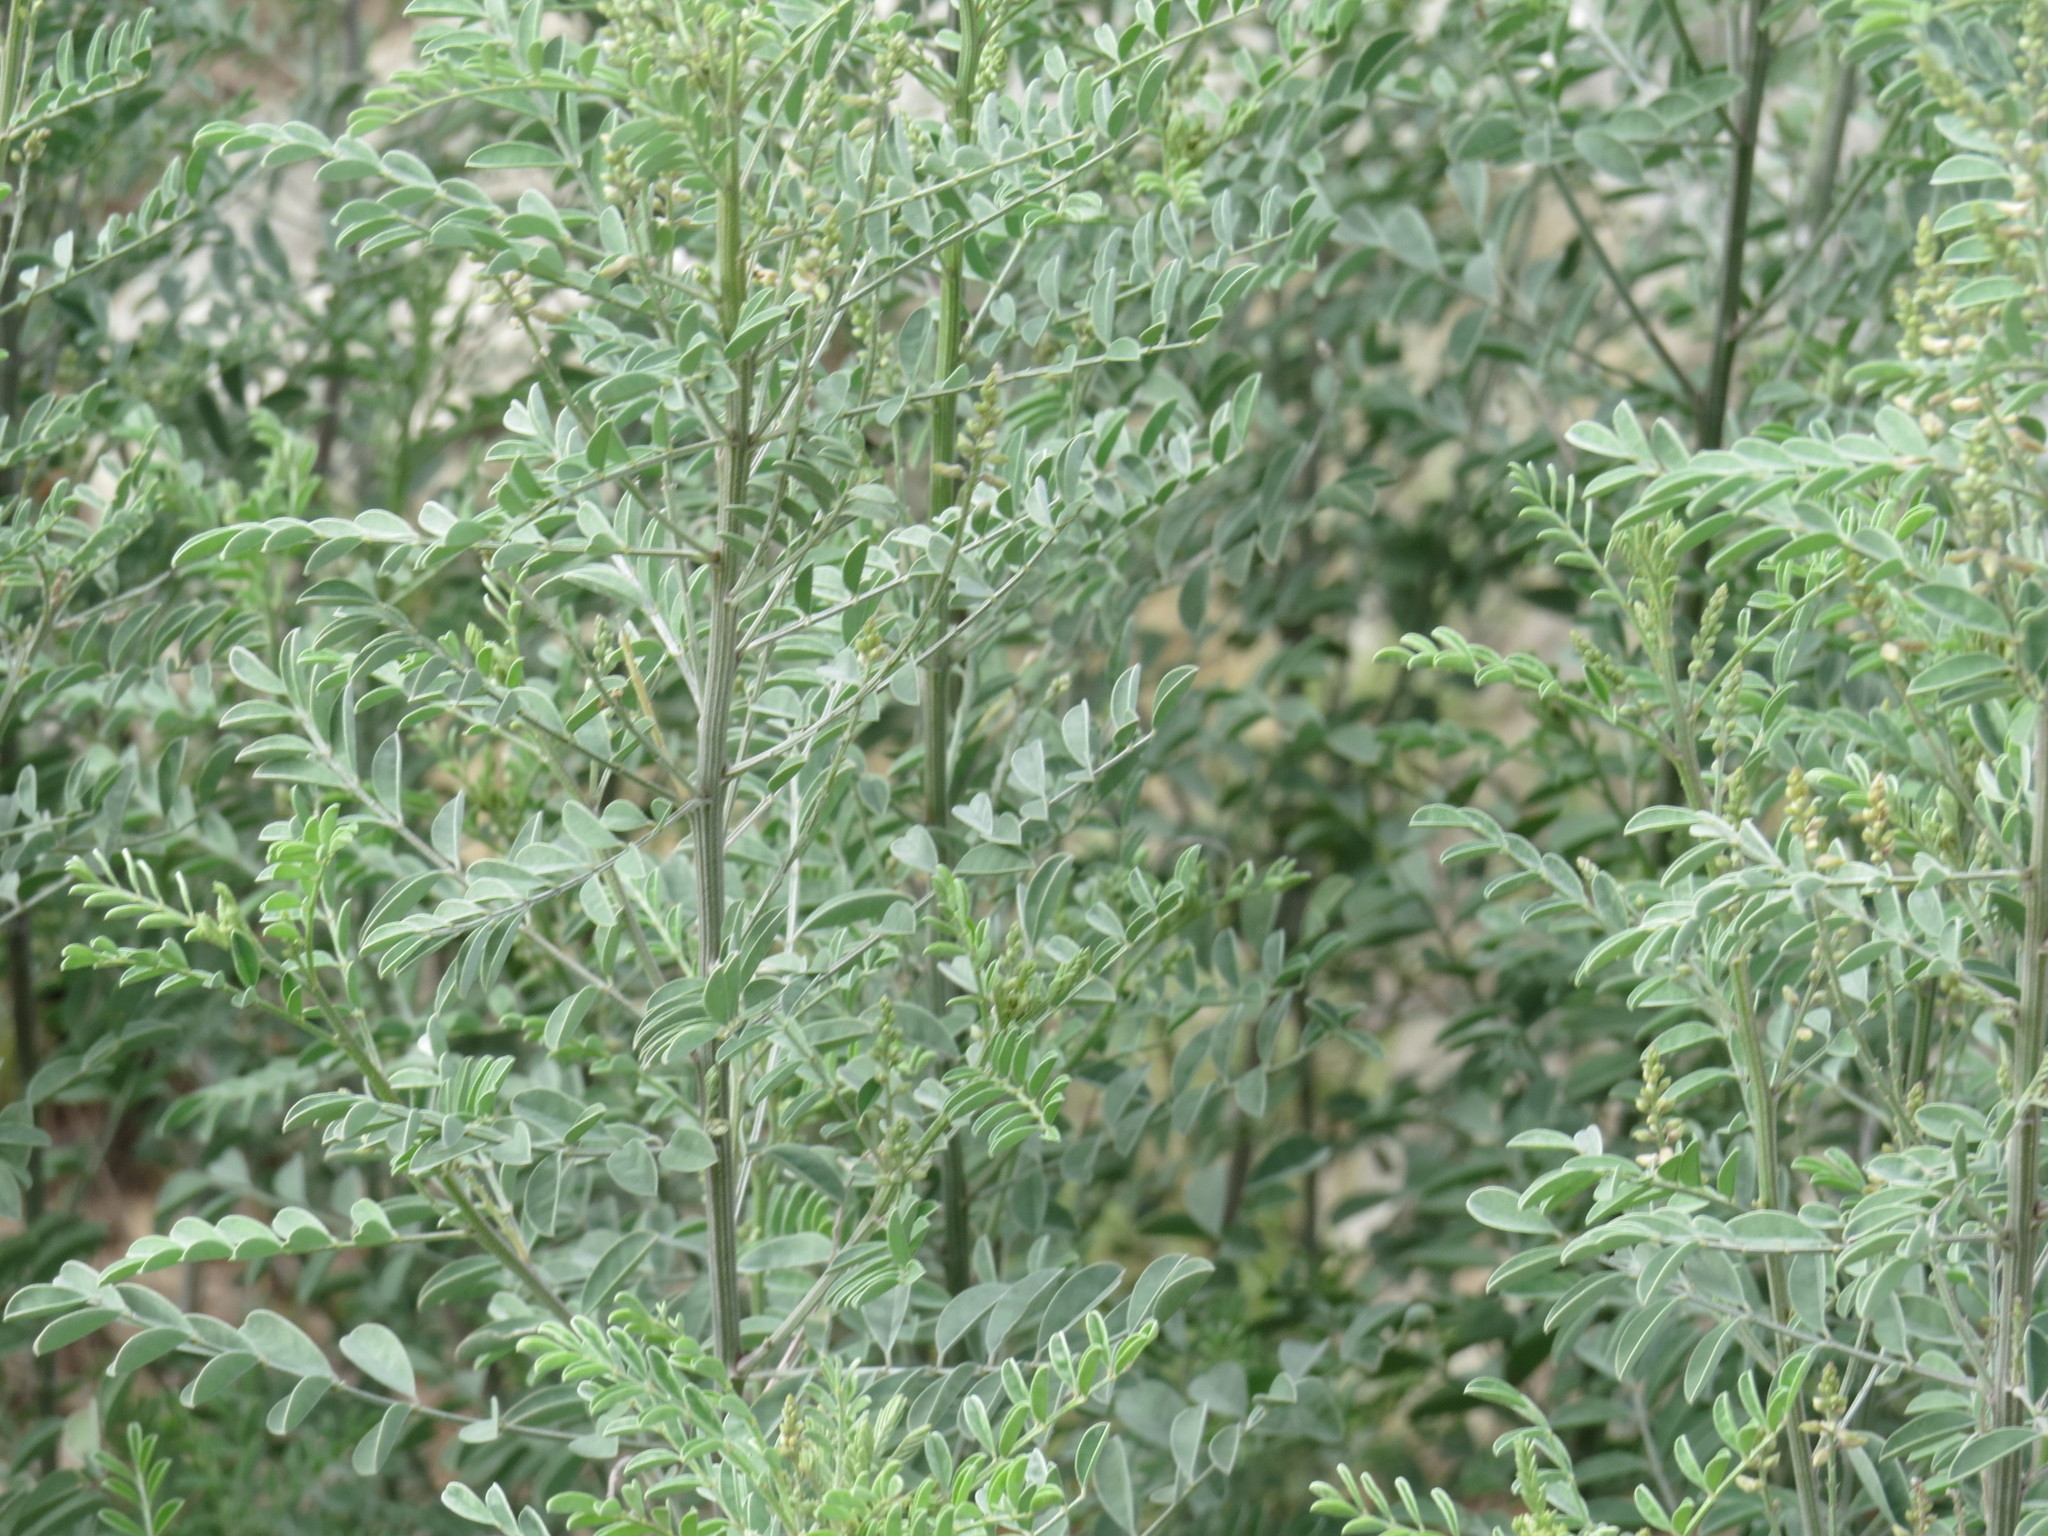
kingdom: Plantae
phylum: Tracheophyta
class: Magnoliopsida
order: Fabales
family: Fabaceae
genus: Indigofera
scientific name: Indigofera lindheimeriana
